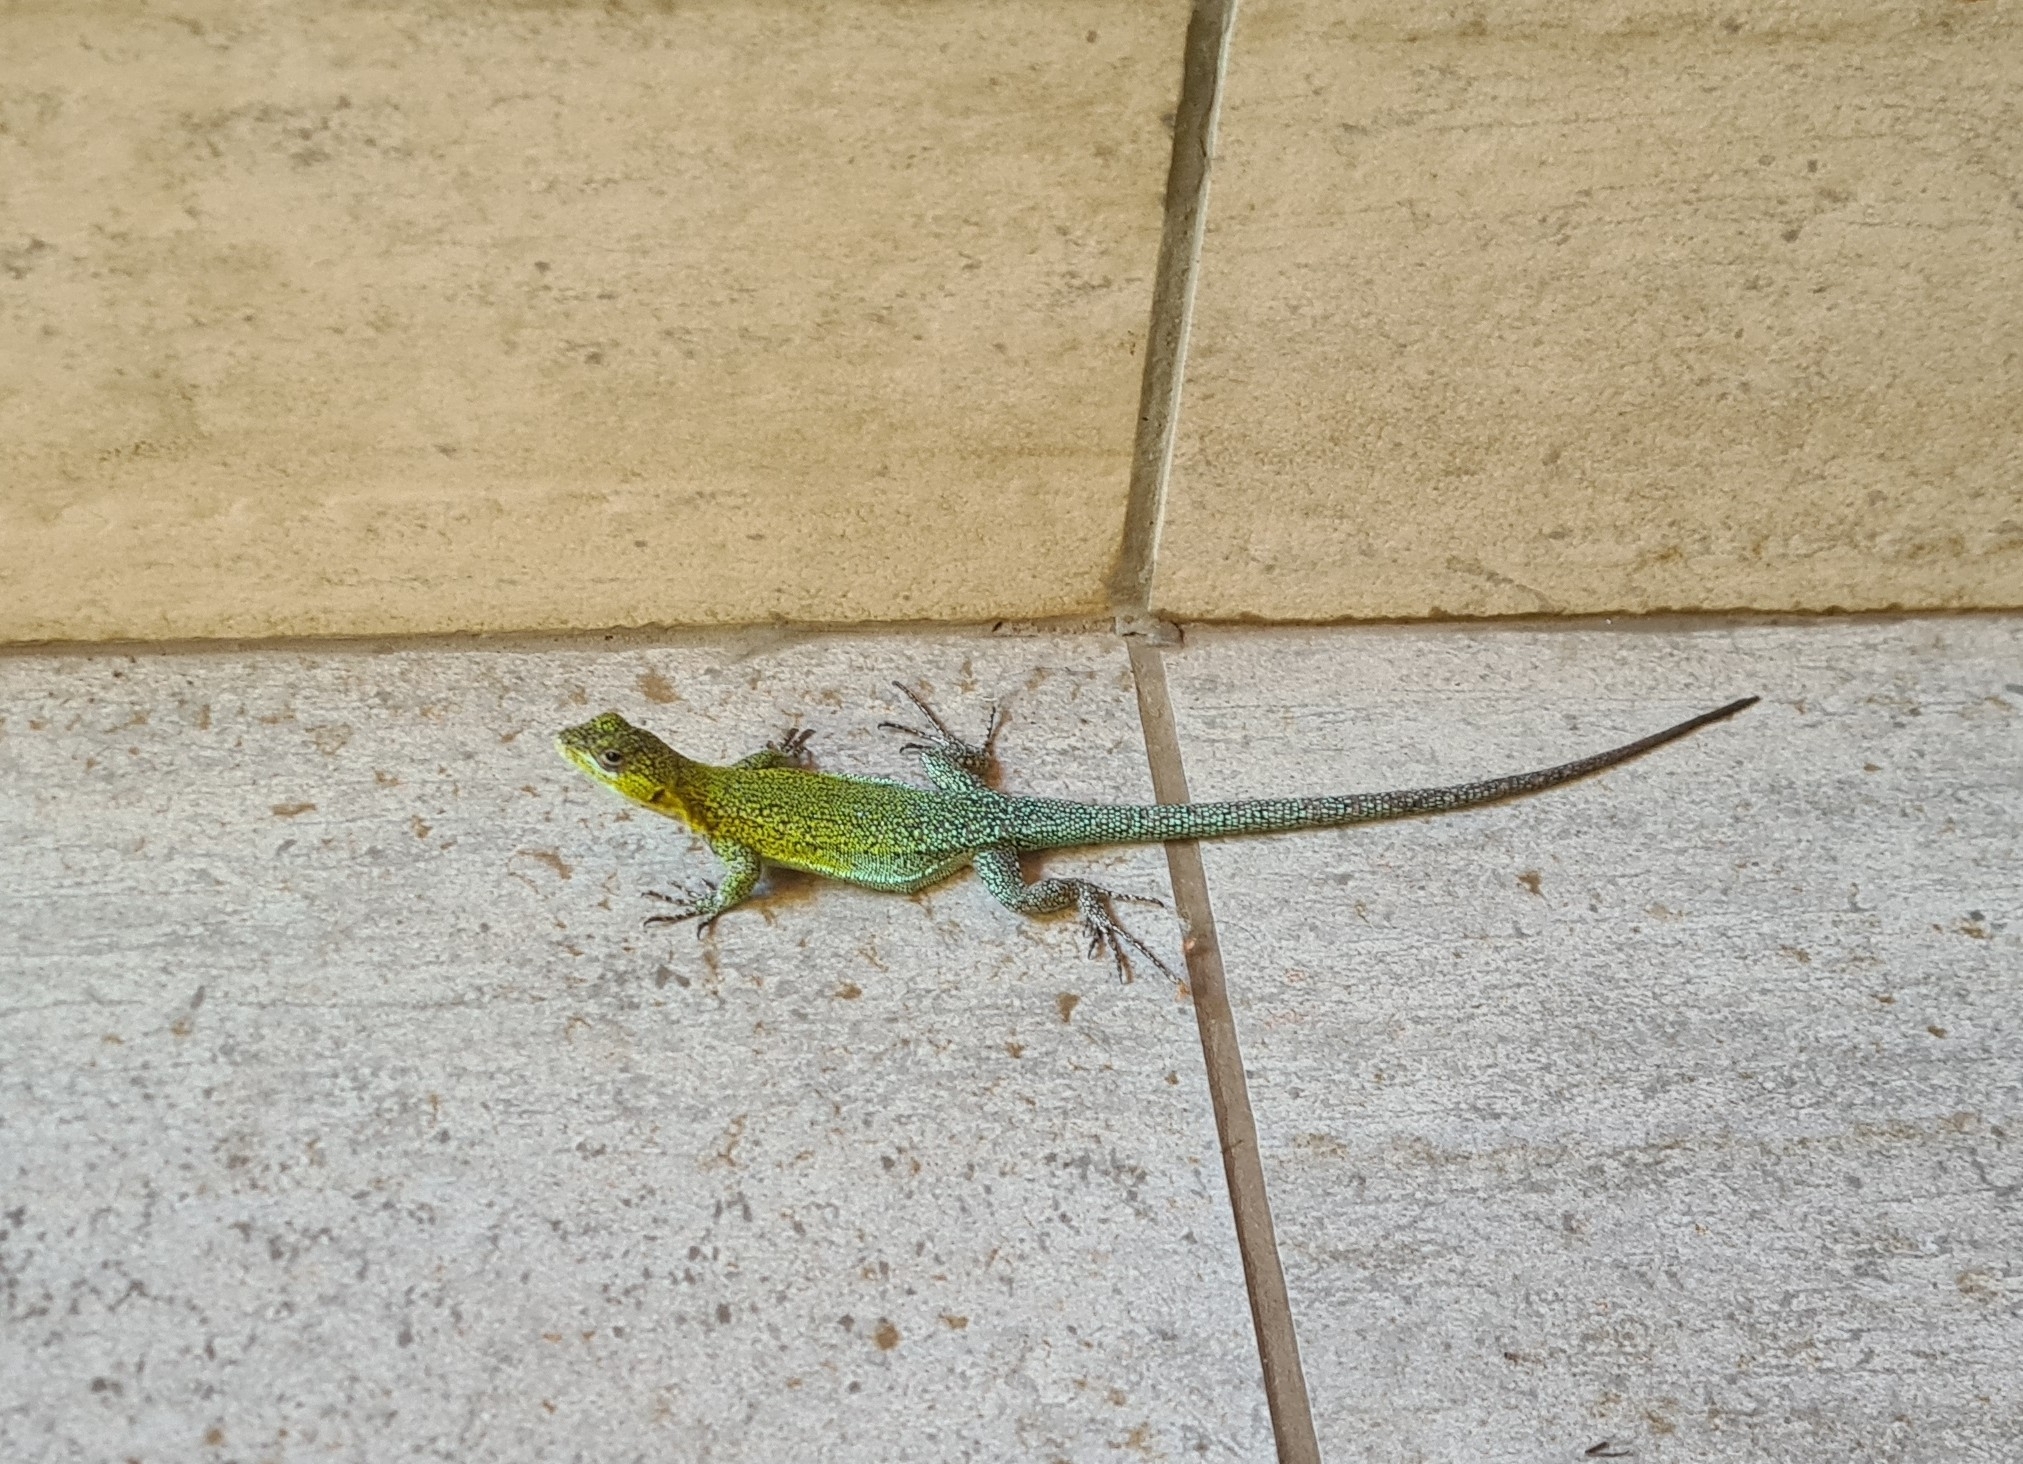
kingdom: Animalia
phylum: Chordata
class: Squamata
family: Liolaemidae
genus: Liolaemus
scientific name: Liolaemus tenuis
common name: Thin tree iguana
